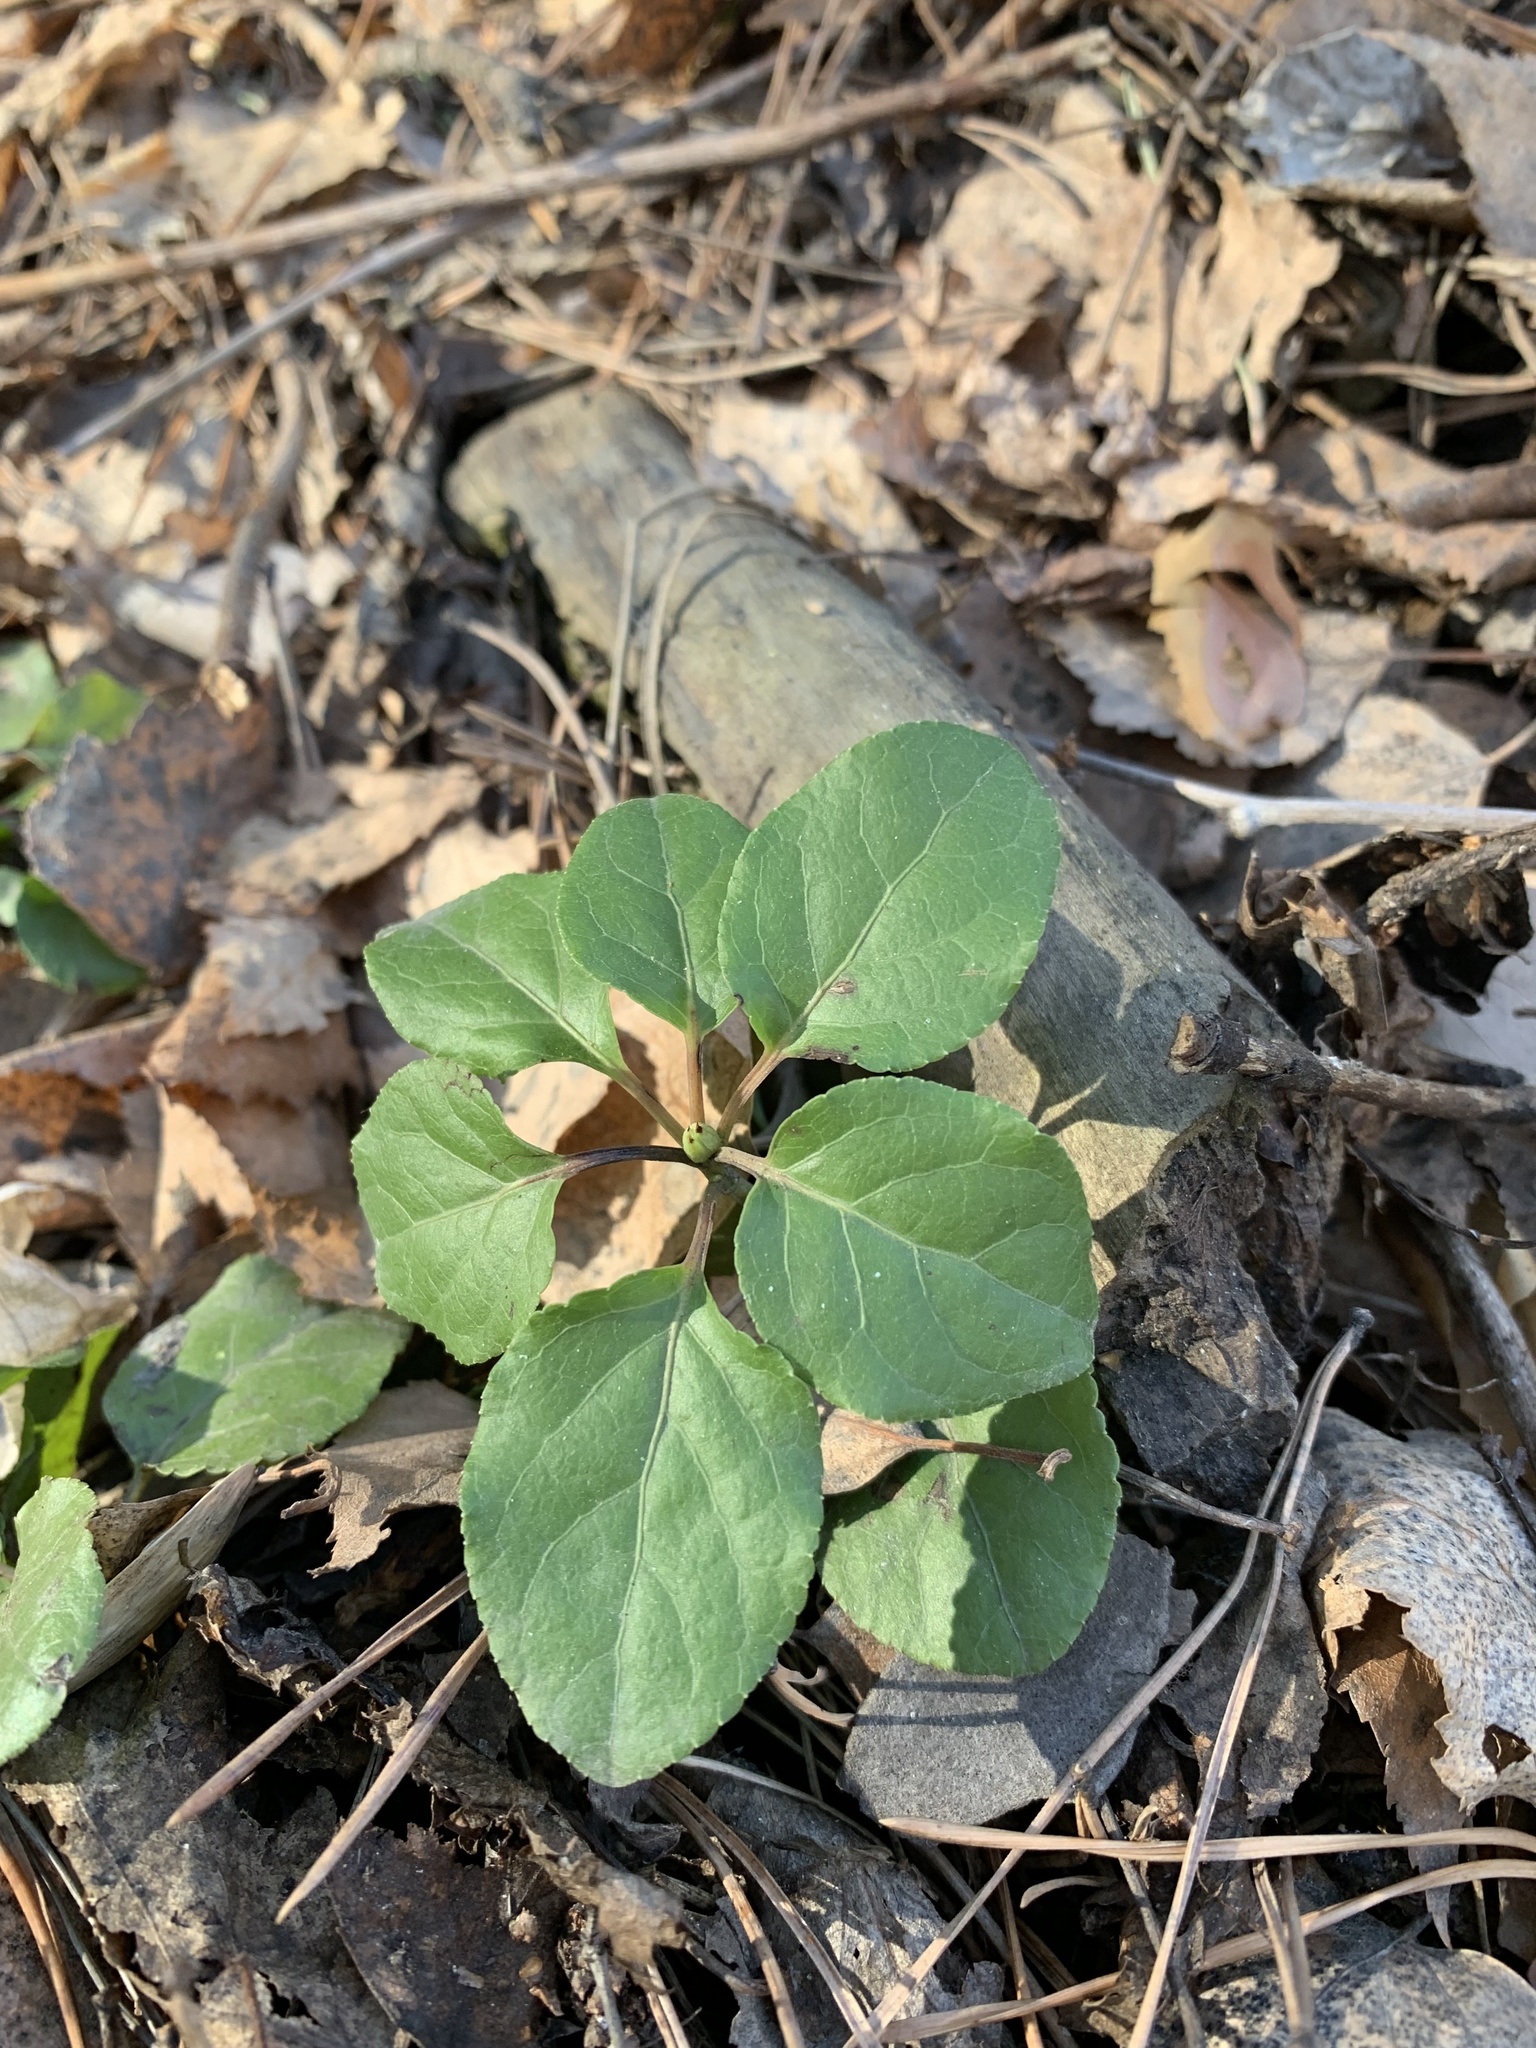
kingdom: Plantae
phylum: Tracheophyta
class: Magnoliopsida
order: Ericales
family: Ericaceae
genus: Orthilia
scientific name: Orthilia secunda
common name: One-sided orthilia
